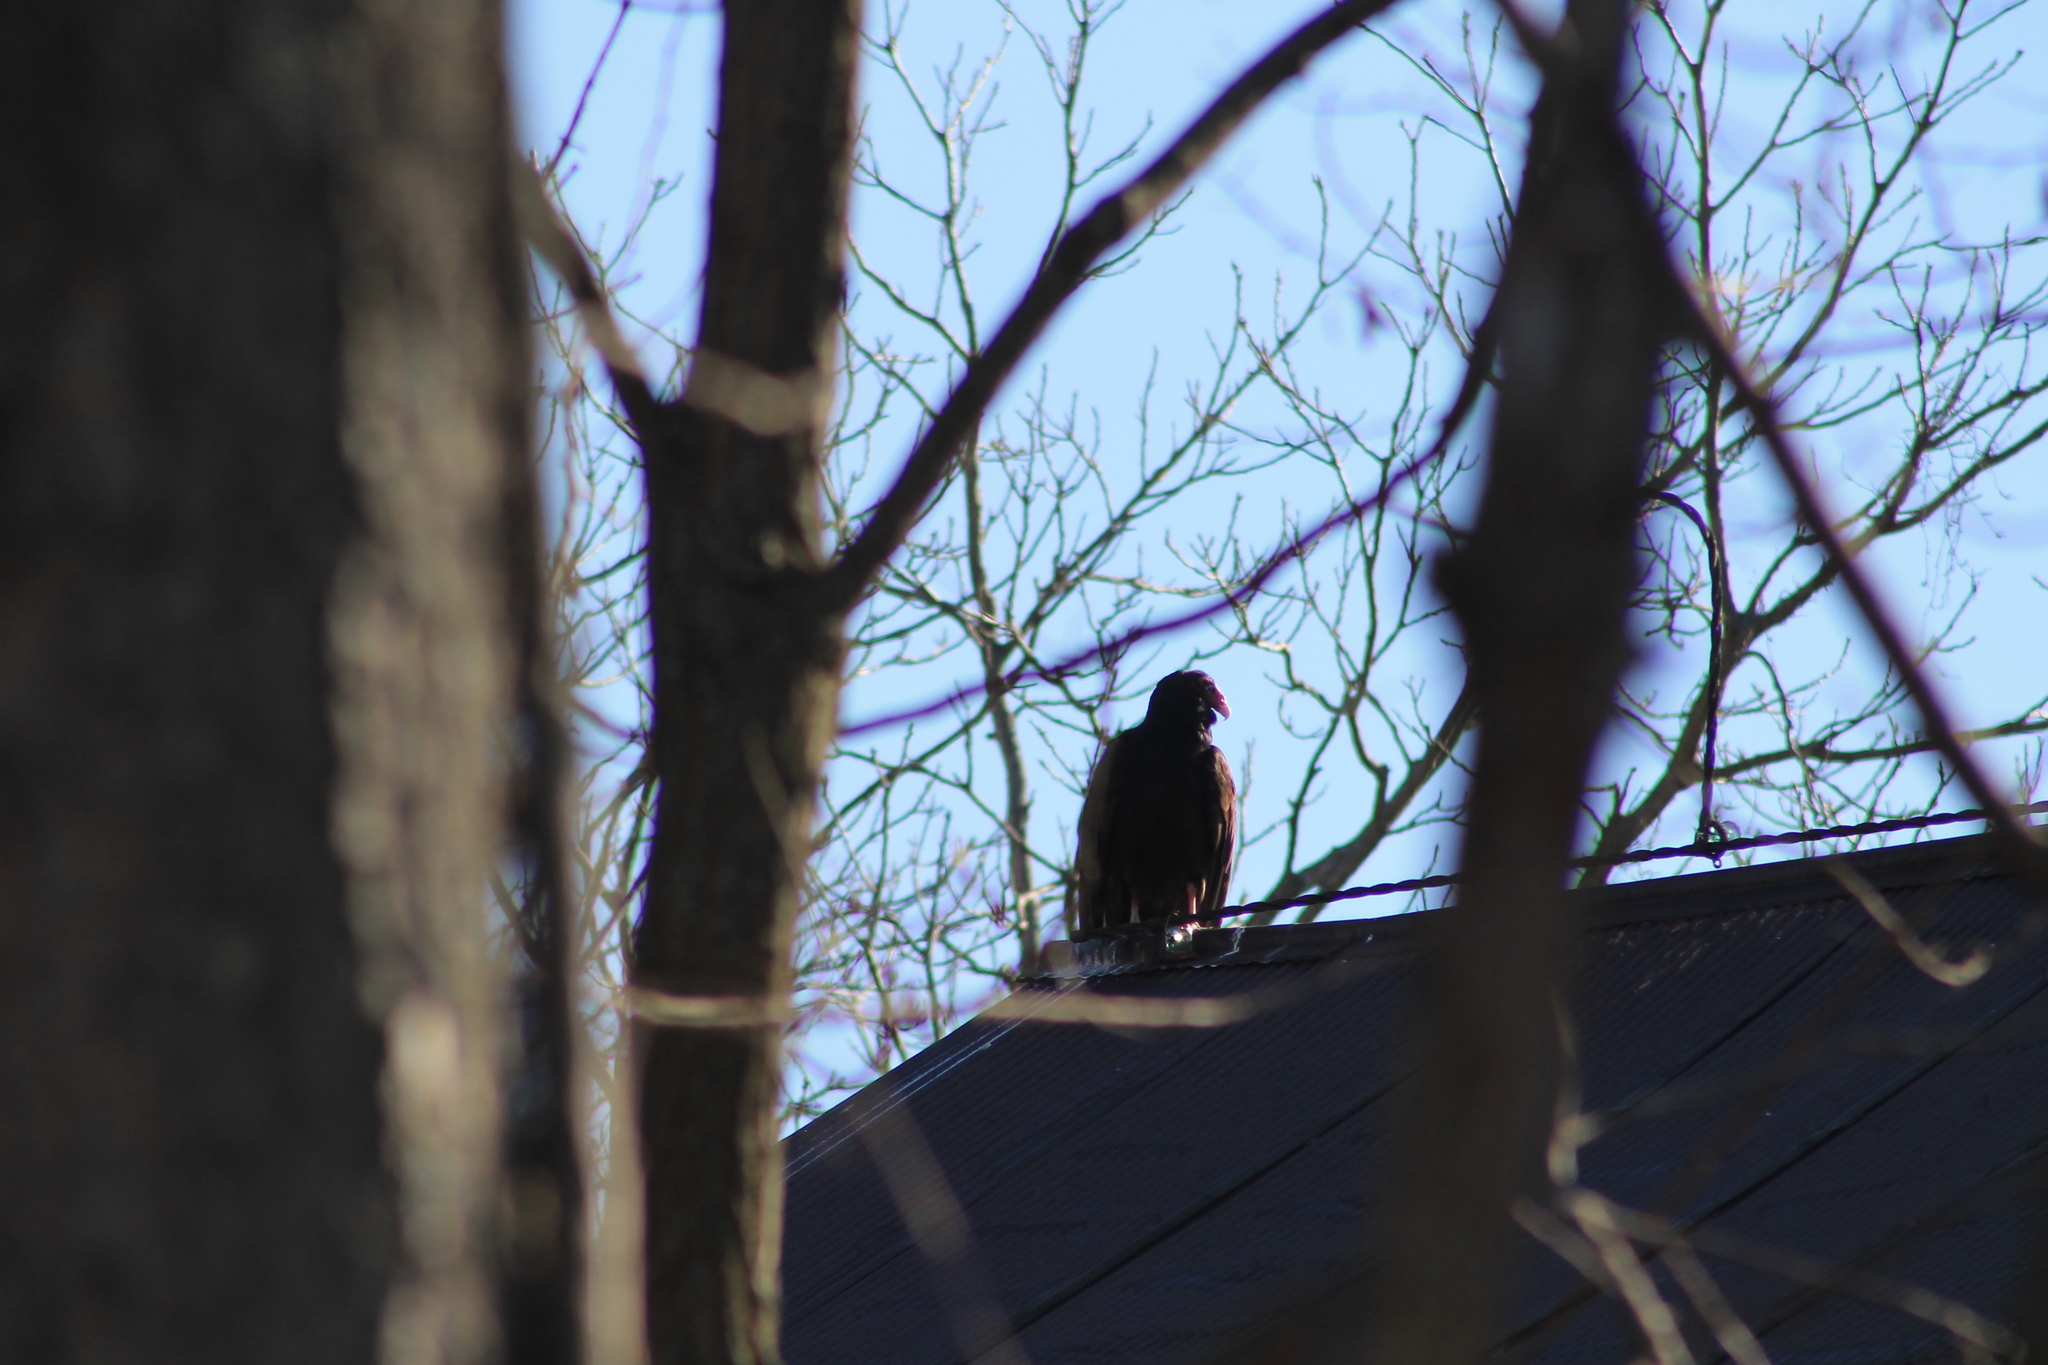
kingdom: Animalia
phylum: Chordata
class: Aves
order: Accipitriformes
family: Cathartidae
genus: Cathartes
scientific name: Cathartes aura
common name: Turkey vulture
